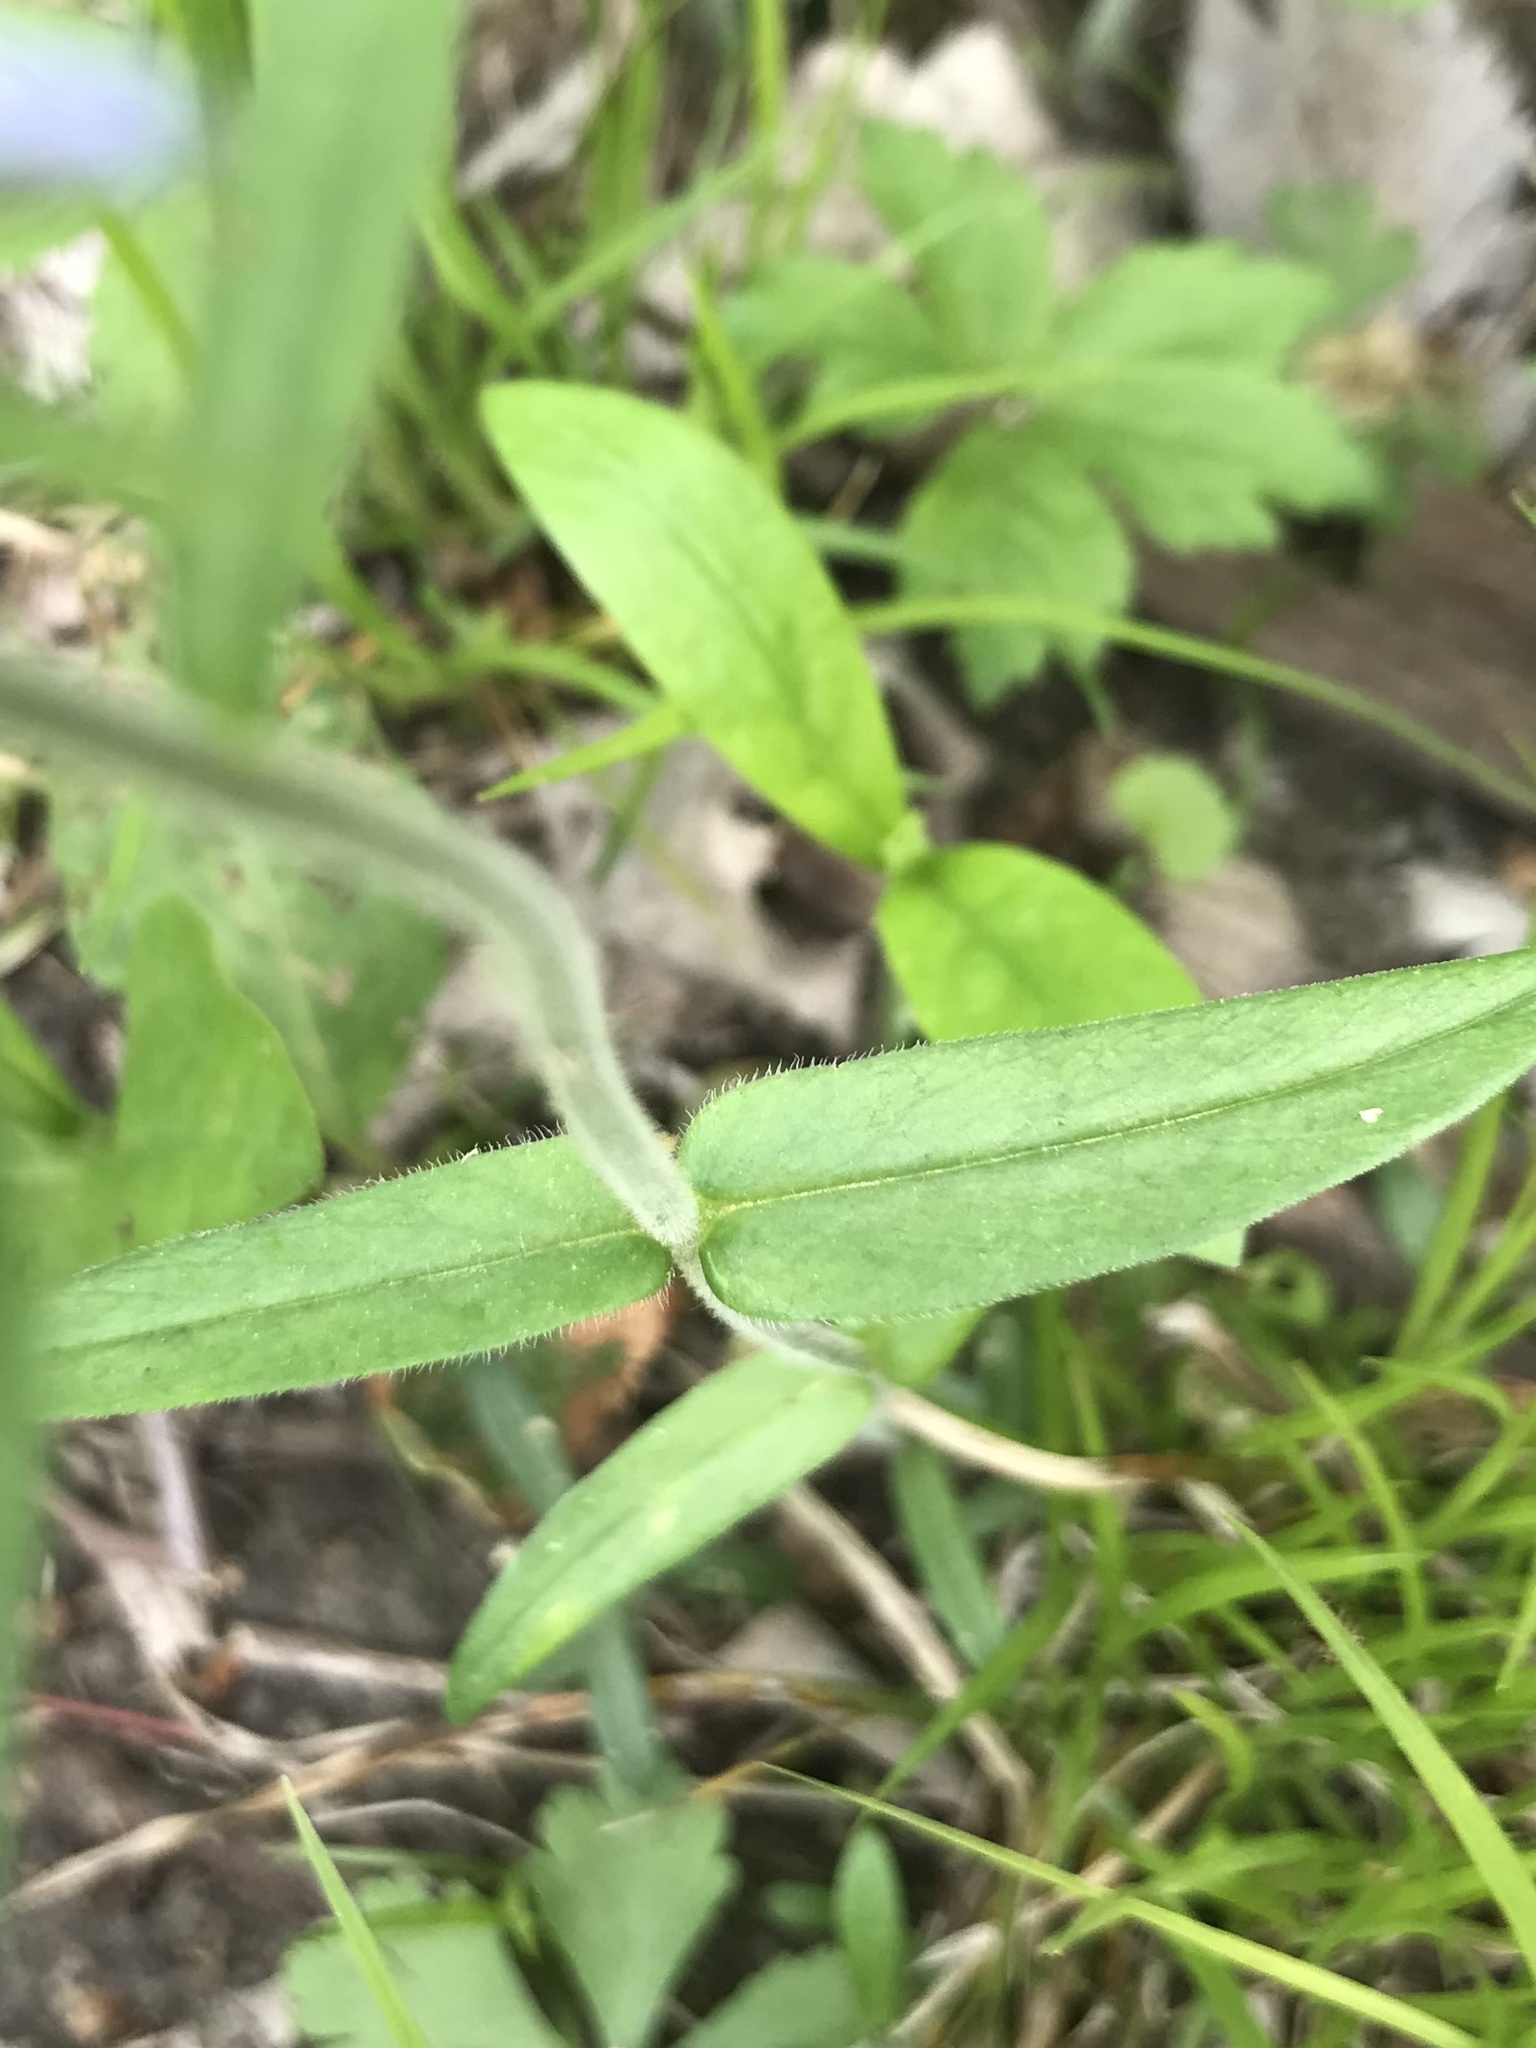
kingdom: Plantae
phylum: Tracheophyta
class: Magnoliopsida
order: Ericales
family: Polemoniaceae
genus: Phlox
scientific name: Phlox divaricata
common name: Blue phlox
